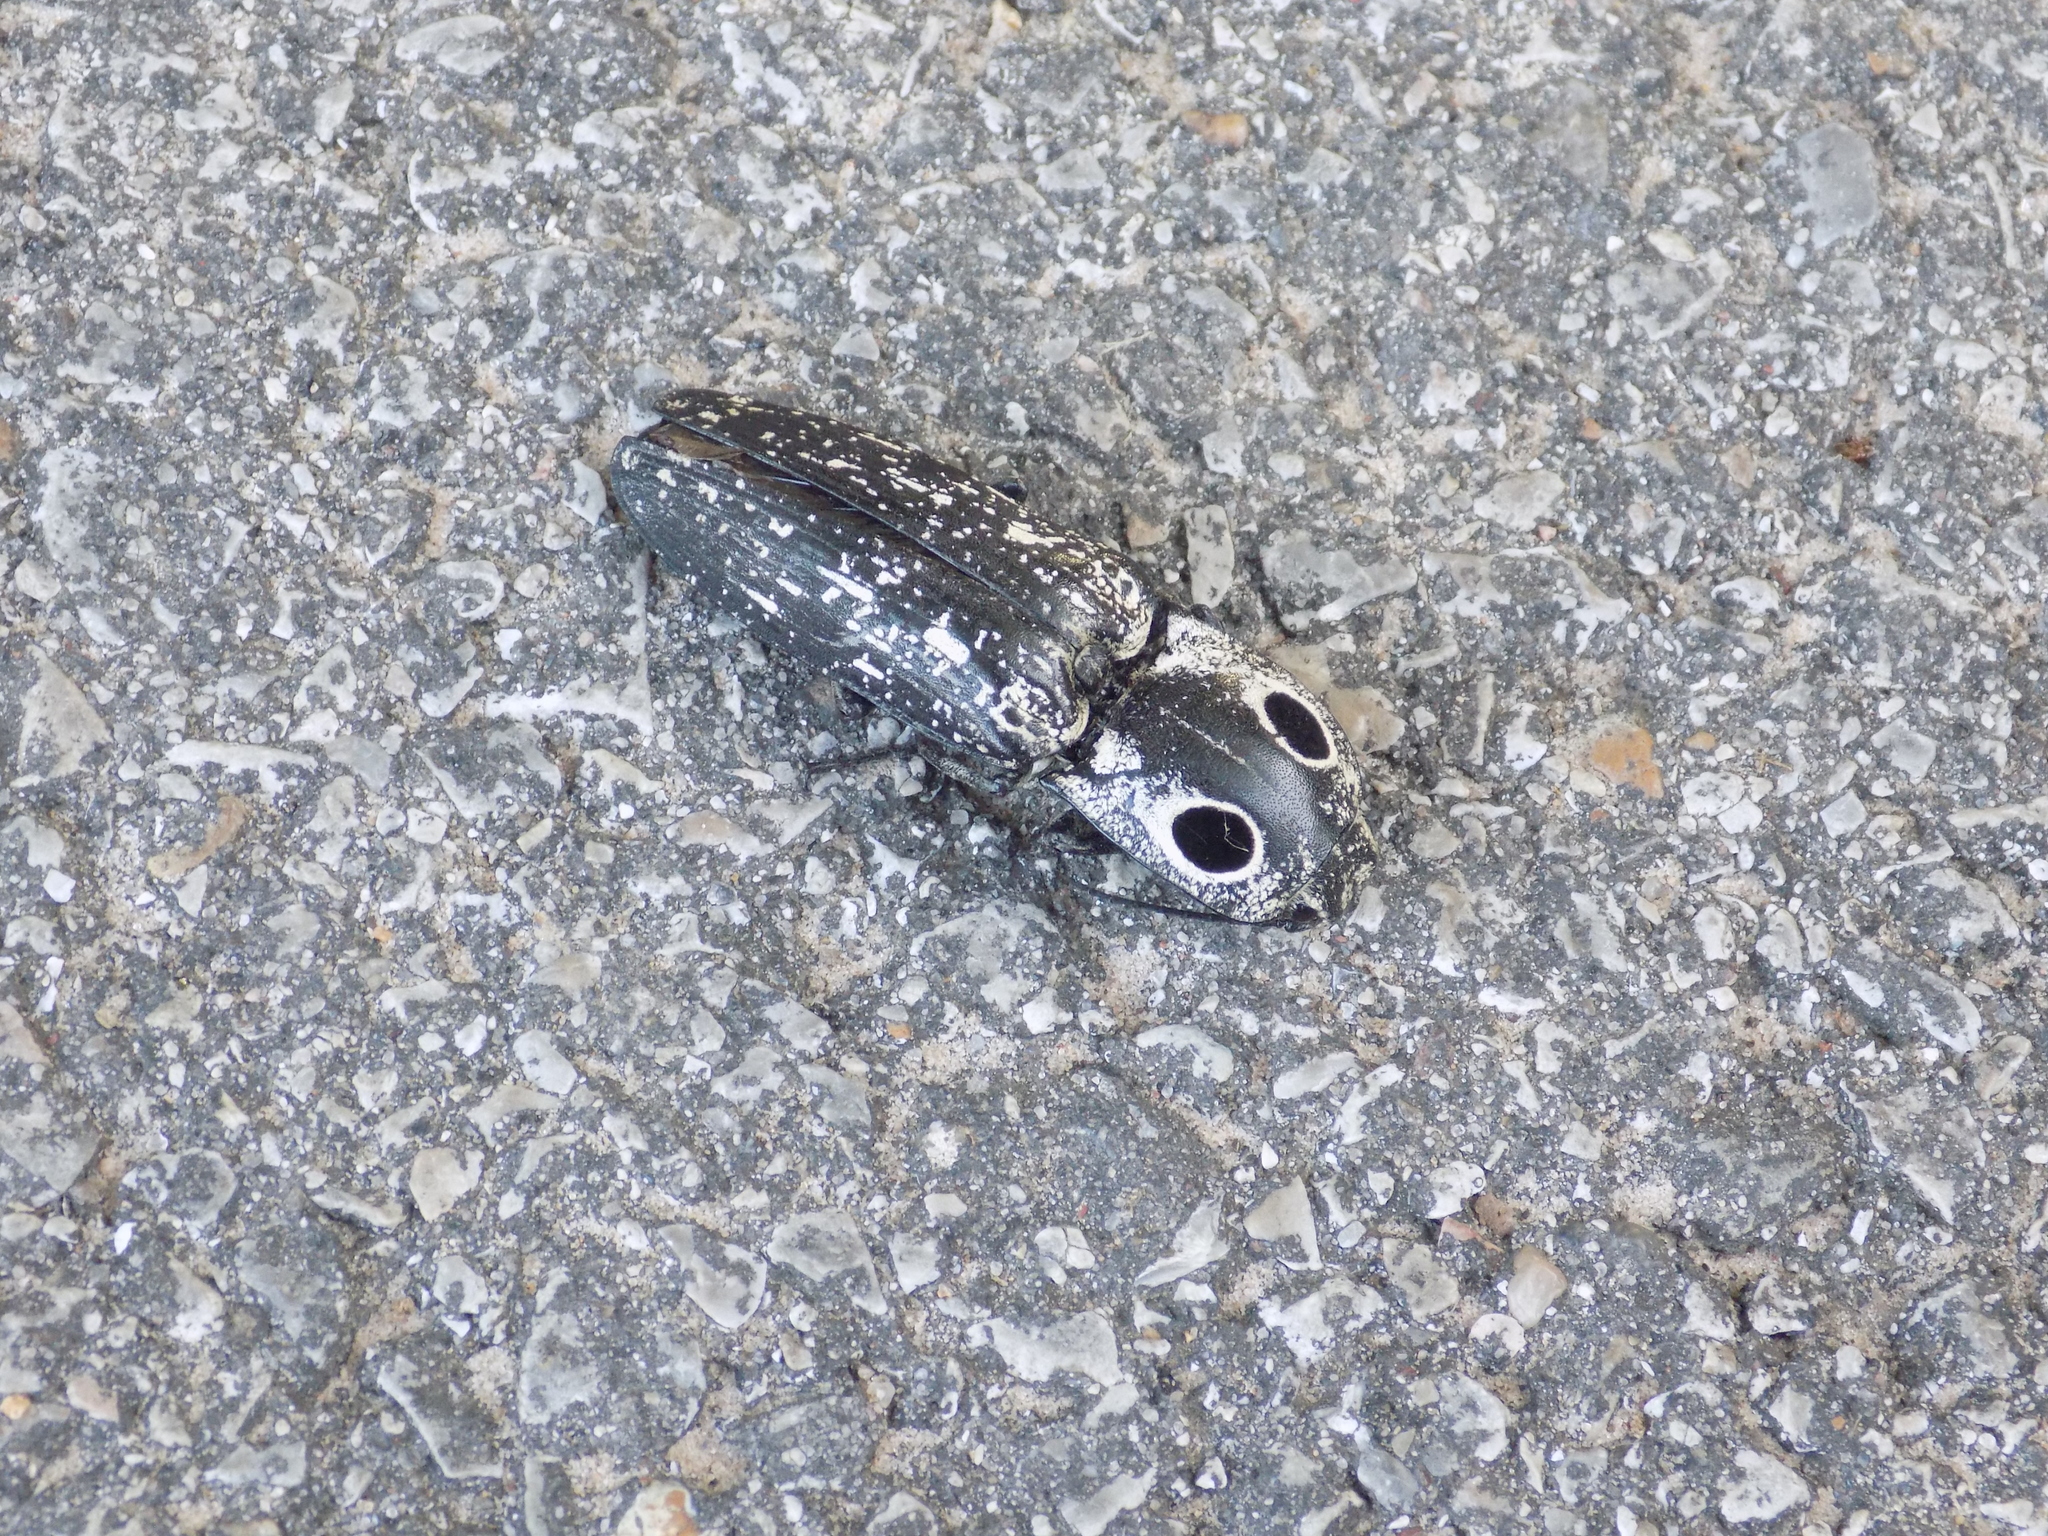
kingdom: Animalia
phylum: Arthropoda
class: Insecta
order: Coleoptera
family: Elateridae
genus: Alaus
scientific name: Alaus oculatus
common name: Eastern eyed click beetle
